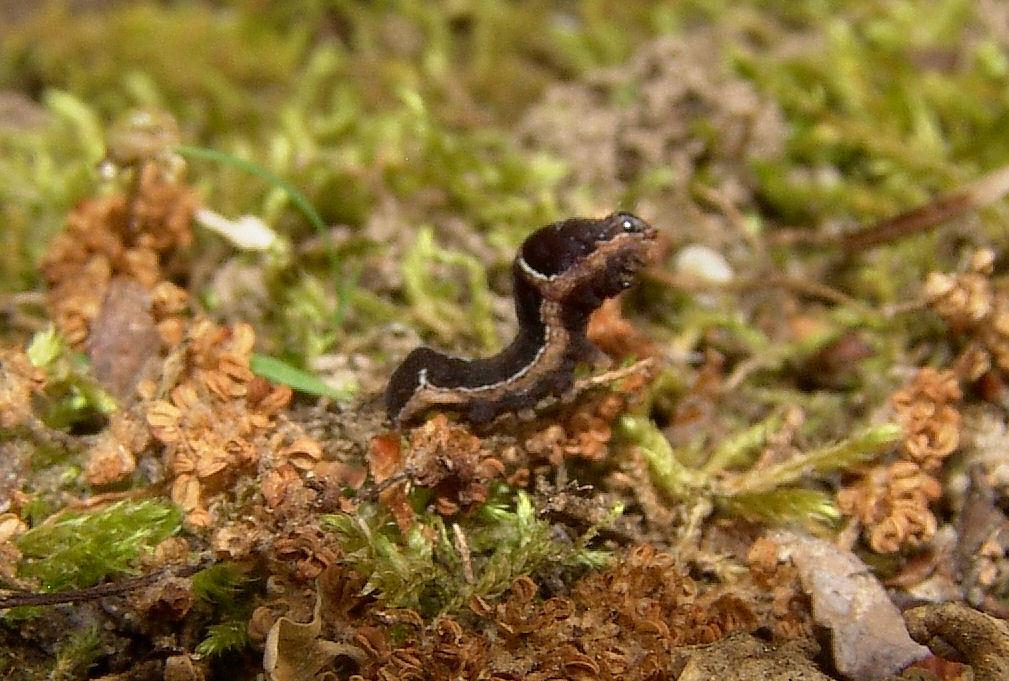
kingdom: Animalia
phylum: Arthropoda
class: Insecta
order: Lepidoptera
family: Noctuidae
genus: Galgula
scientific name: Galgula partita
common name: Wedgeling
